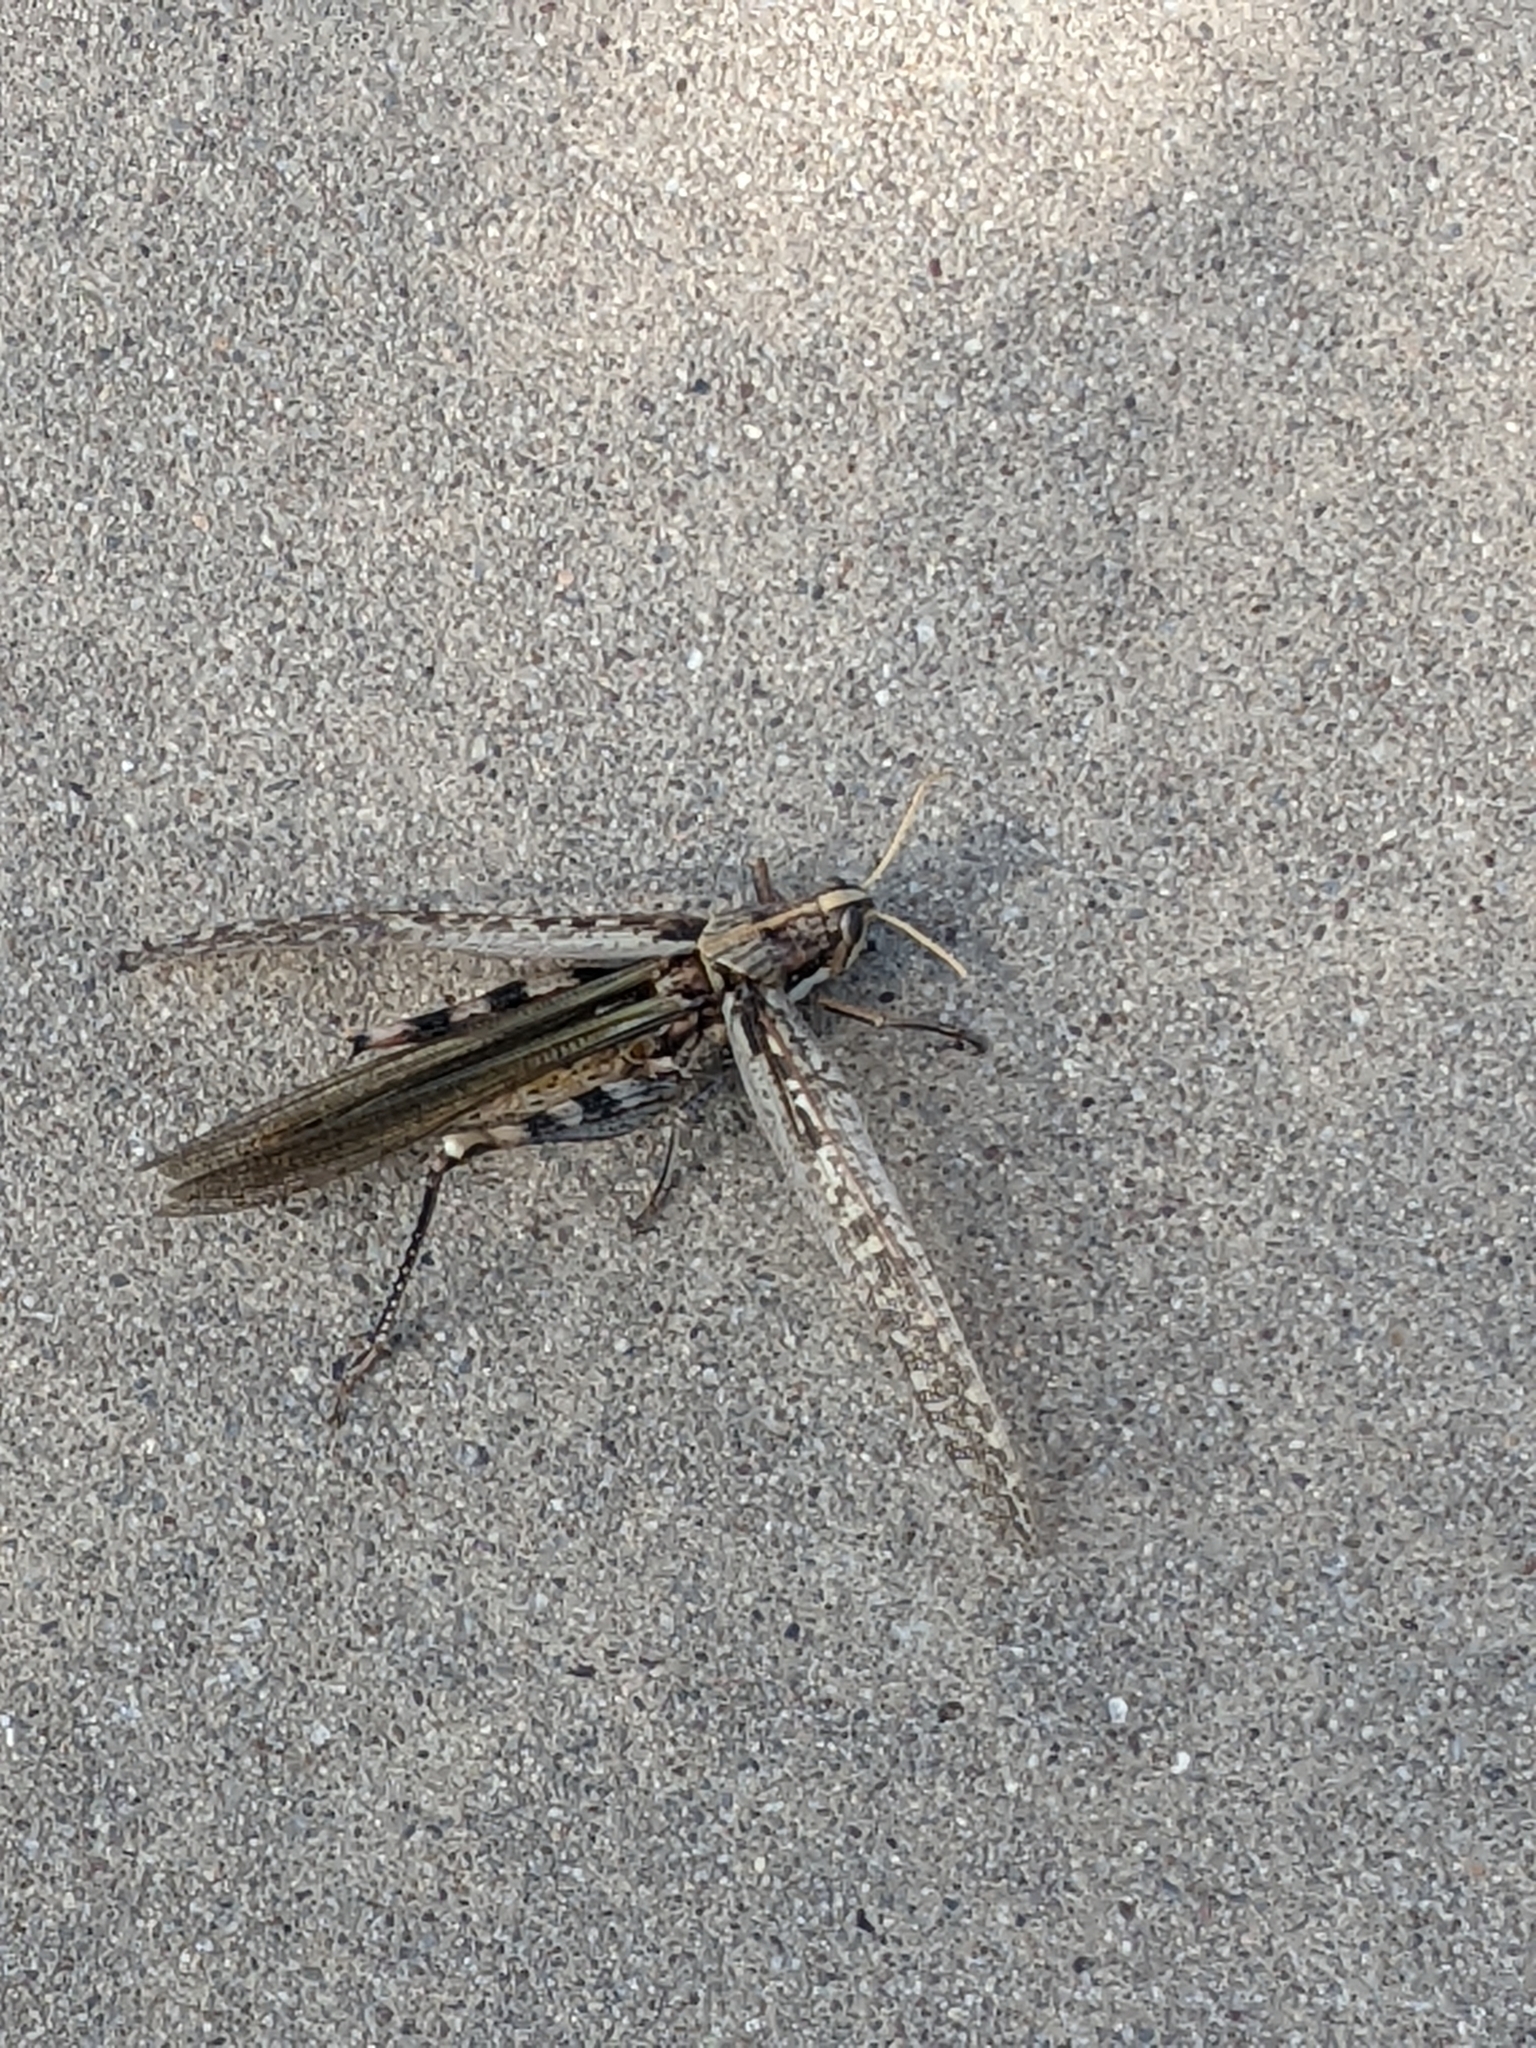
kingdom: Animalia
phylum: Arthropoda
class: Insecta
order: Orthoptera
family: Acrididae
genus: Schistocerca
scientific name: Schistocerca nitens
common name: Vagrant grasshopper
